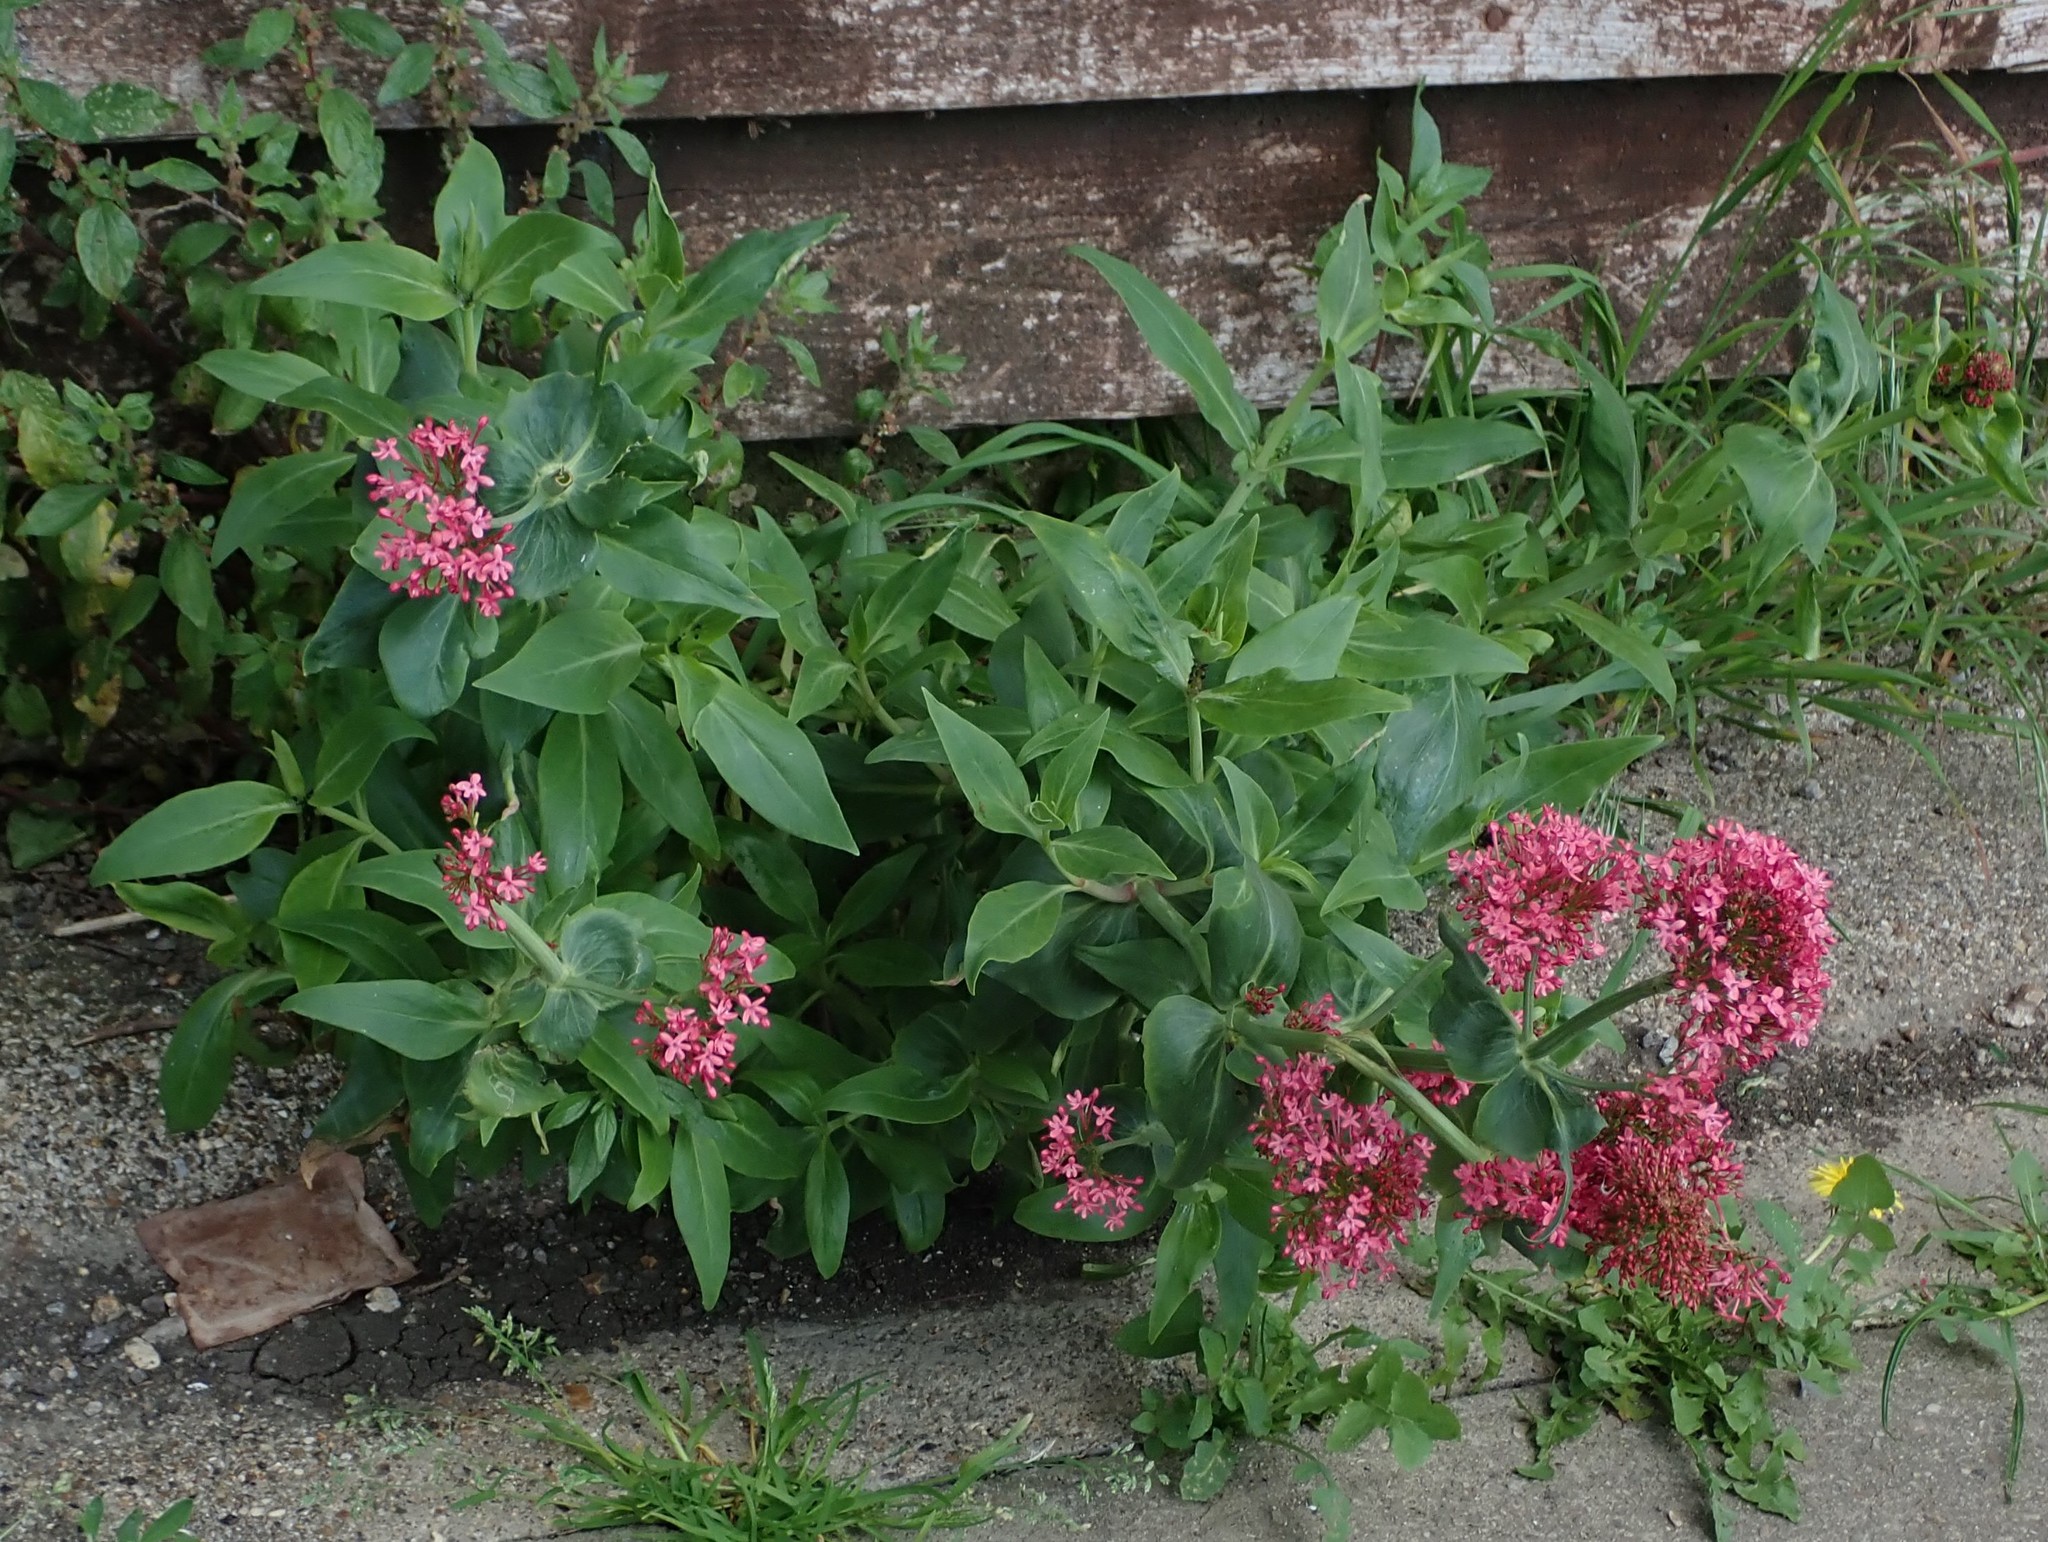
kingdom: Plantae
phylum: Tracheophyta
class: Magnoliopsida
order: Dipsacales
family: Caprifoliaceae
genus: Centranthus
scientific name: Centranthus ruber
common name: Red valerian
